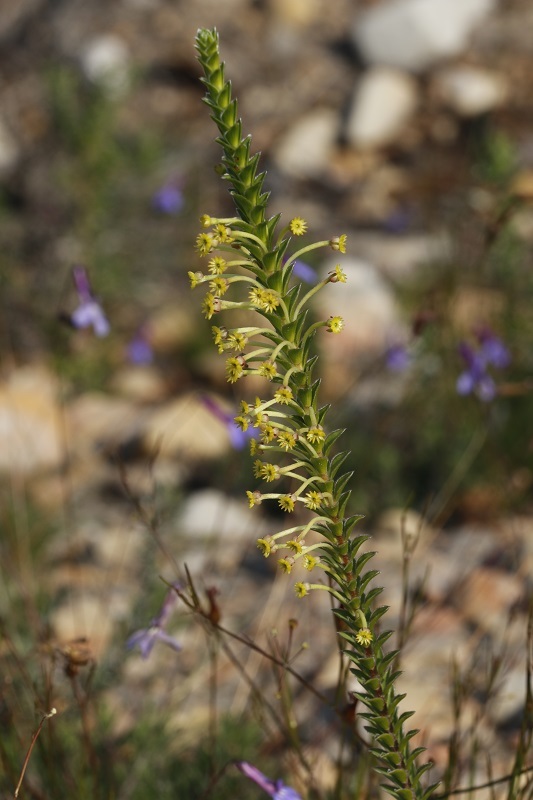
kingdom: Plantae
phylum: Tracheophyta
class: Magnoliopsida
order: Malvales
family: Thymelaeaceae
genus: Struthiola
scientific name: Struthiola argentea
